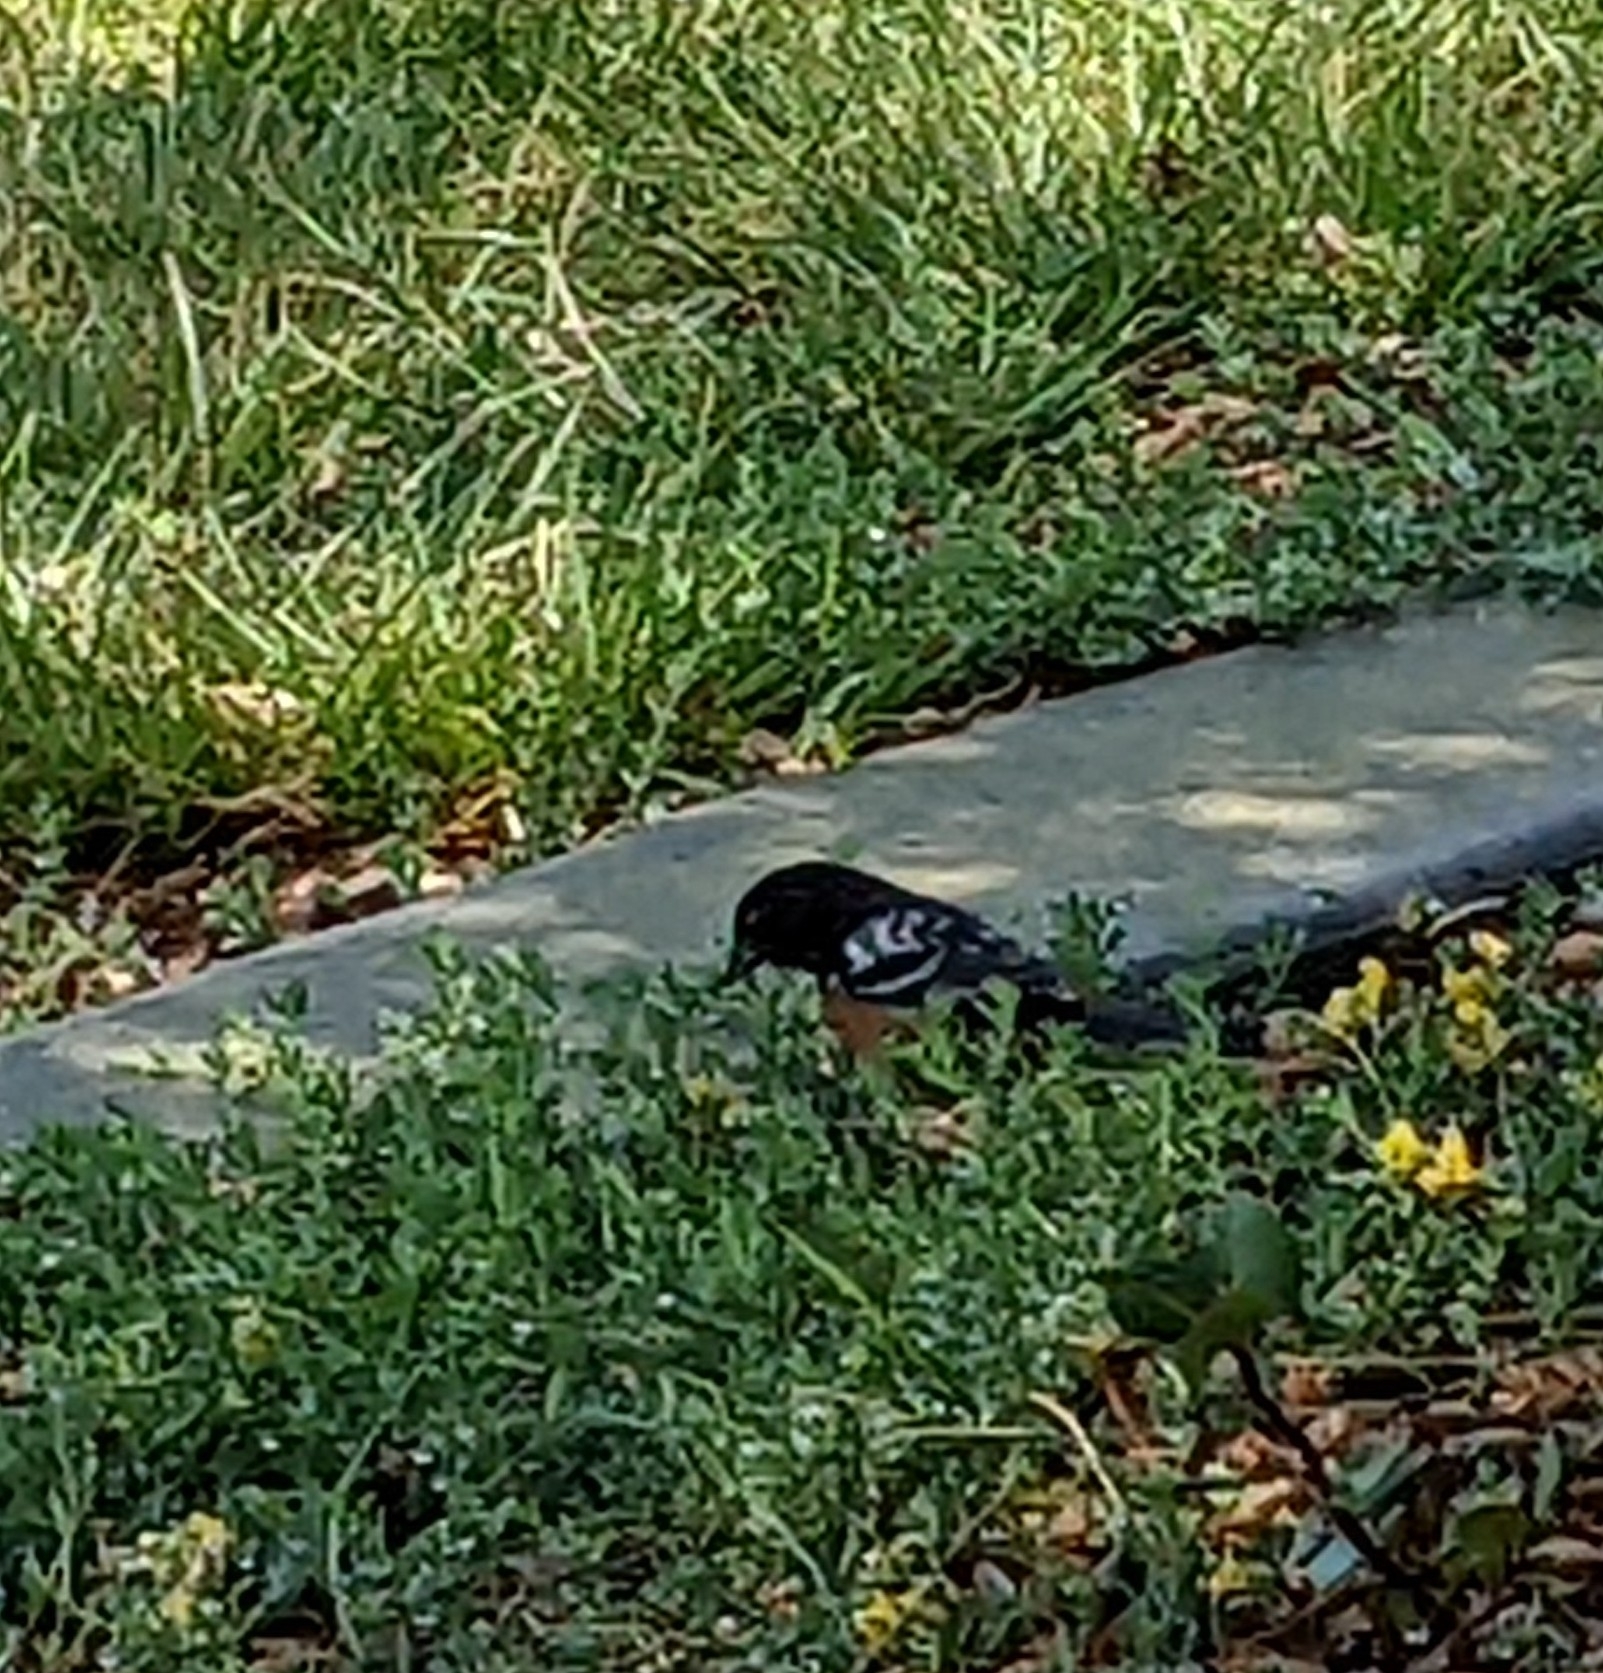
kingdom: Animalia
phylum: Chordata
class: Aves
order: Passeriformes
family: Passerellidae
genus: Pipilo
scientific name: Pipilo maculatus
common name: Spotted towhee
